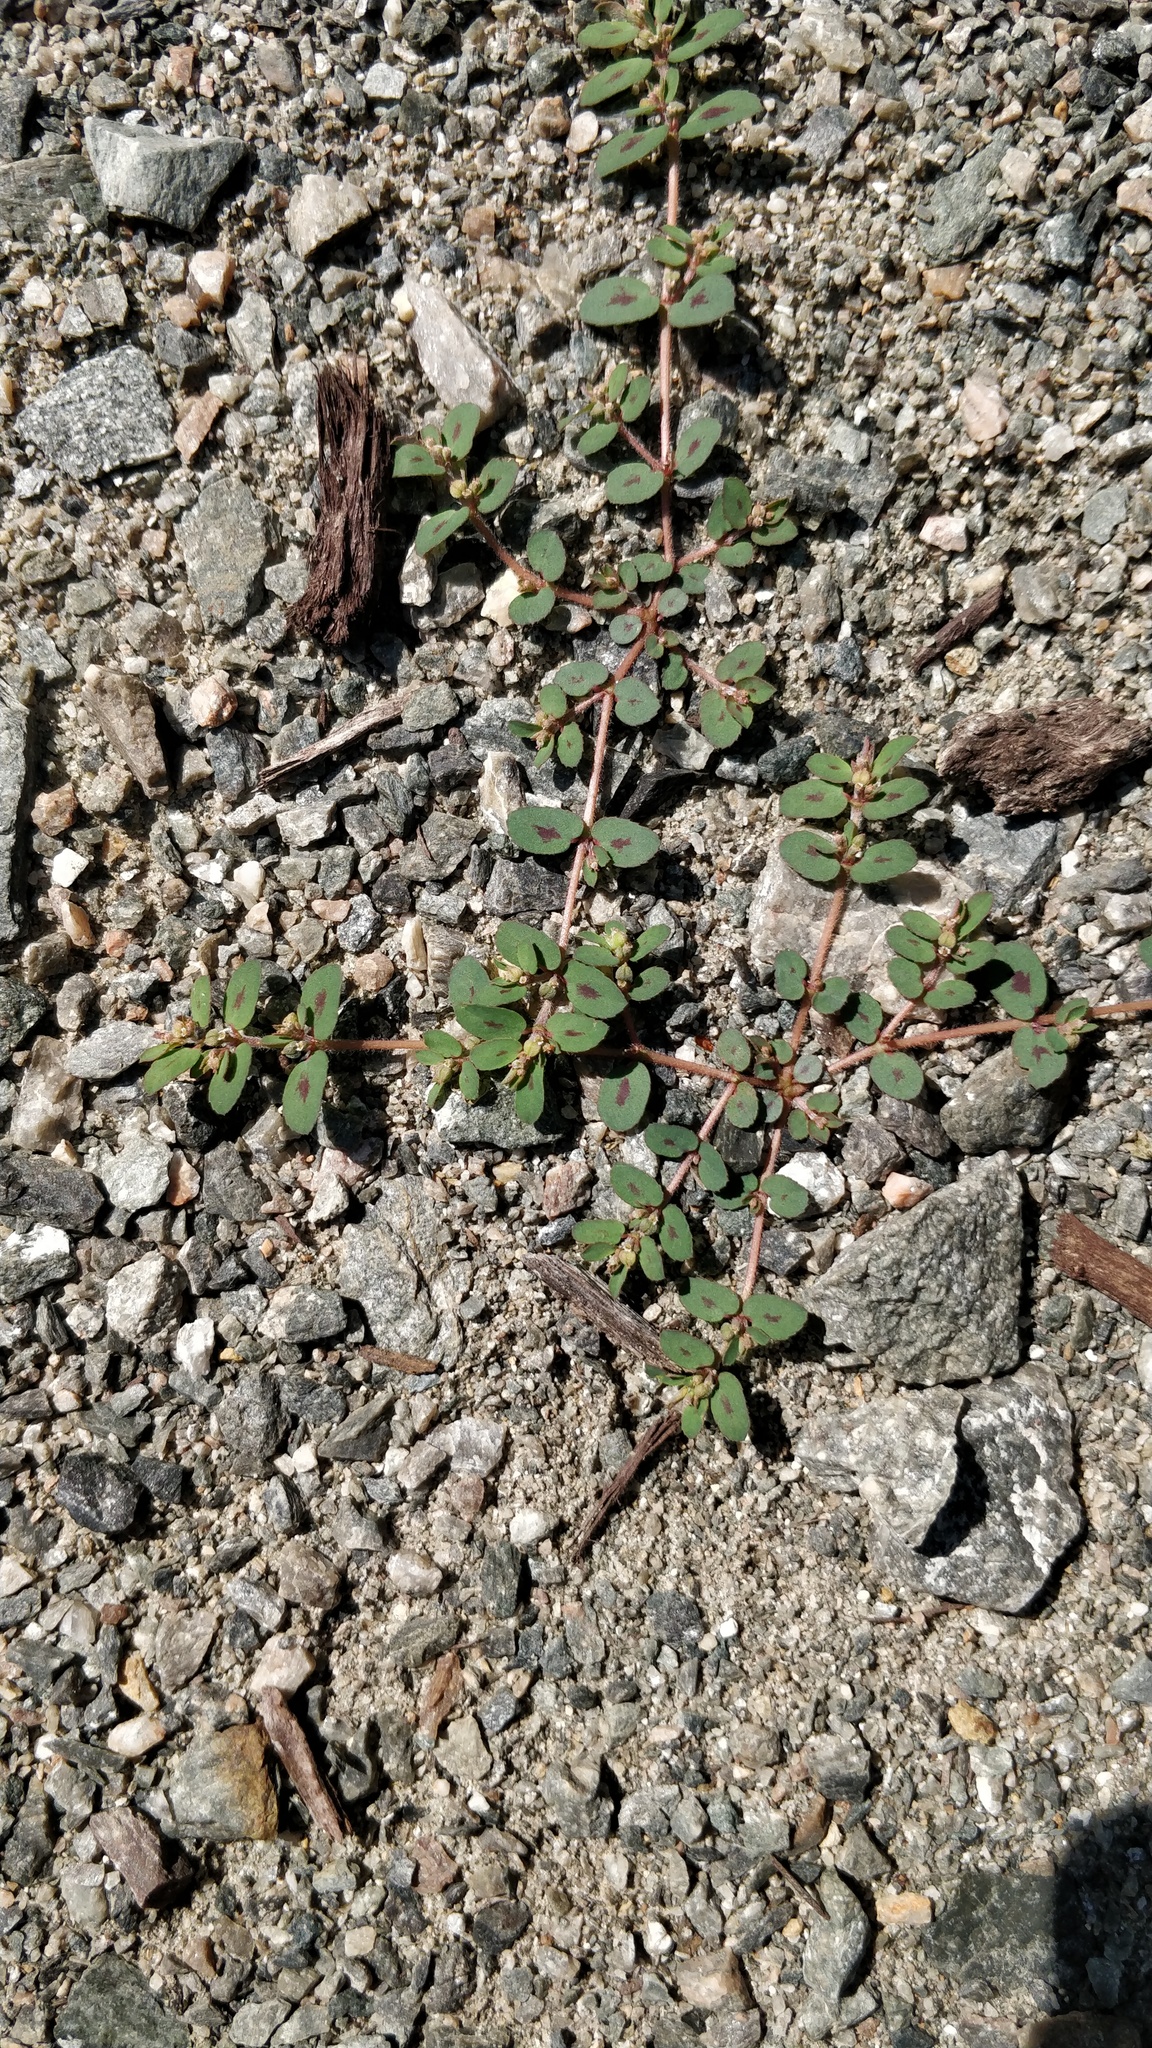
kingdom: Plantae
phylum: Tracheophyta
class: Magnoliopsida
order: Malpighiales
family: Euphorbiaceae
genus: Euphorbia
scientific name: Euphorbia maculata
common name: Spotted spurge
